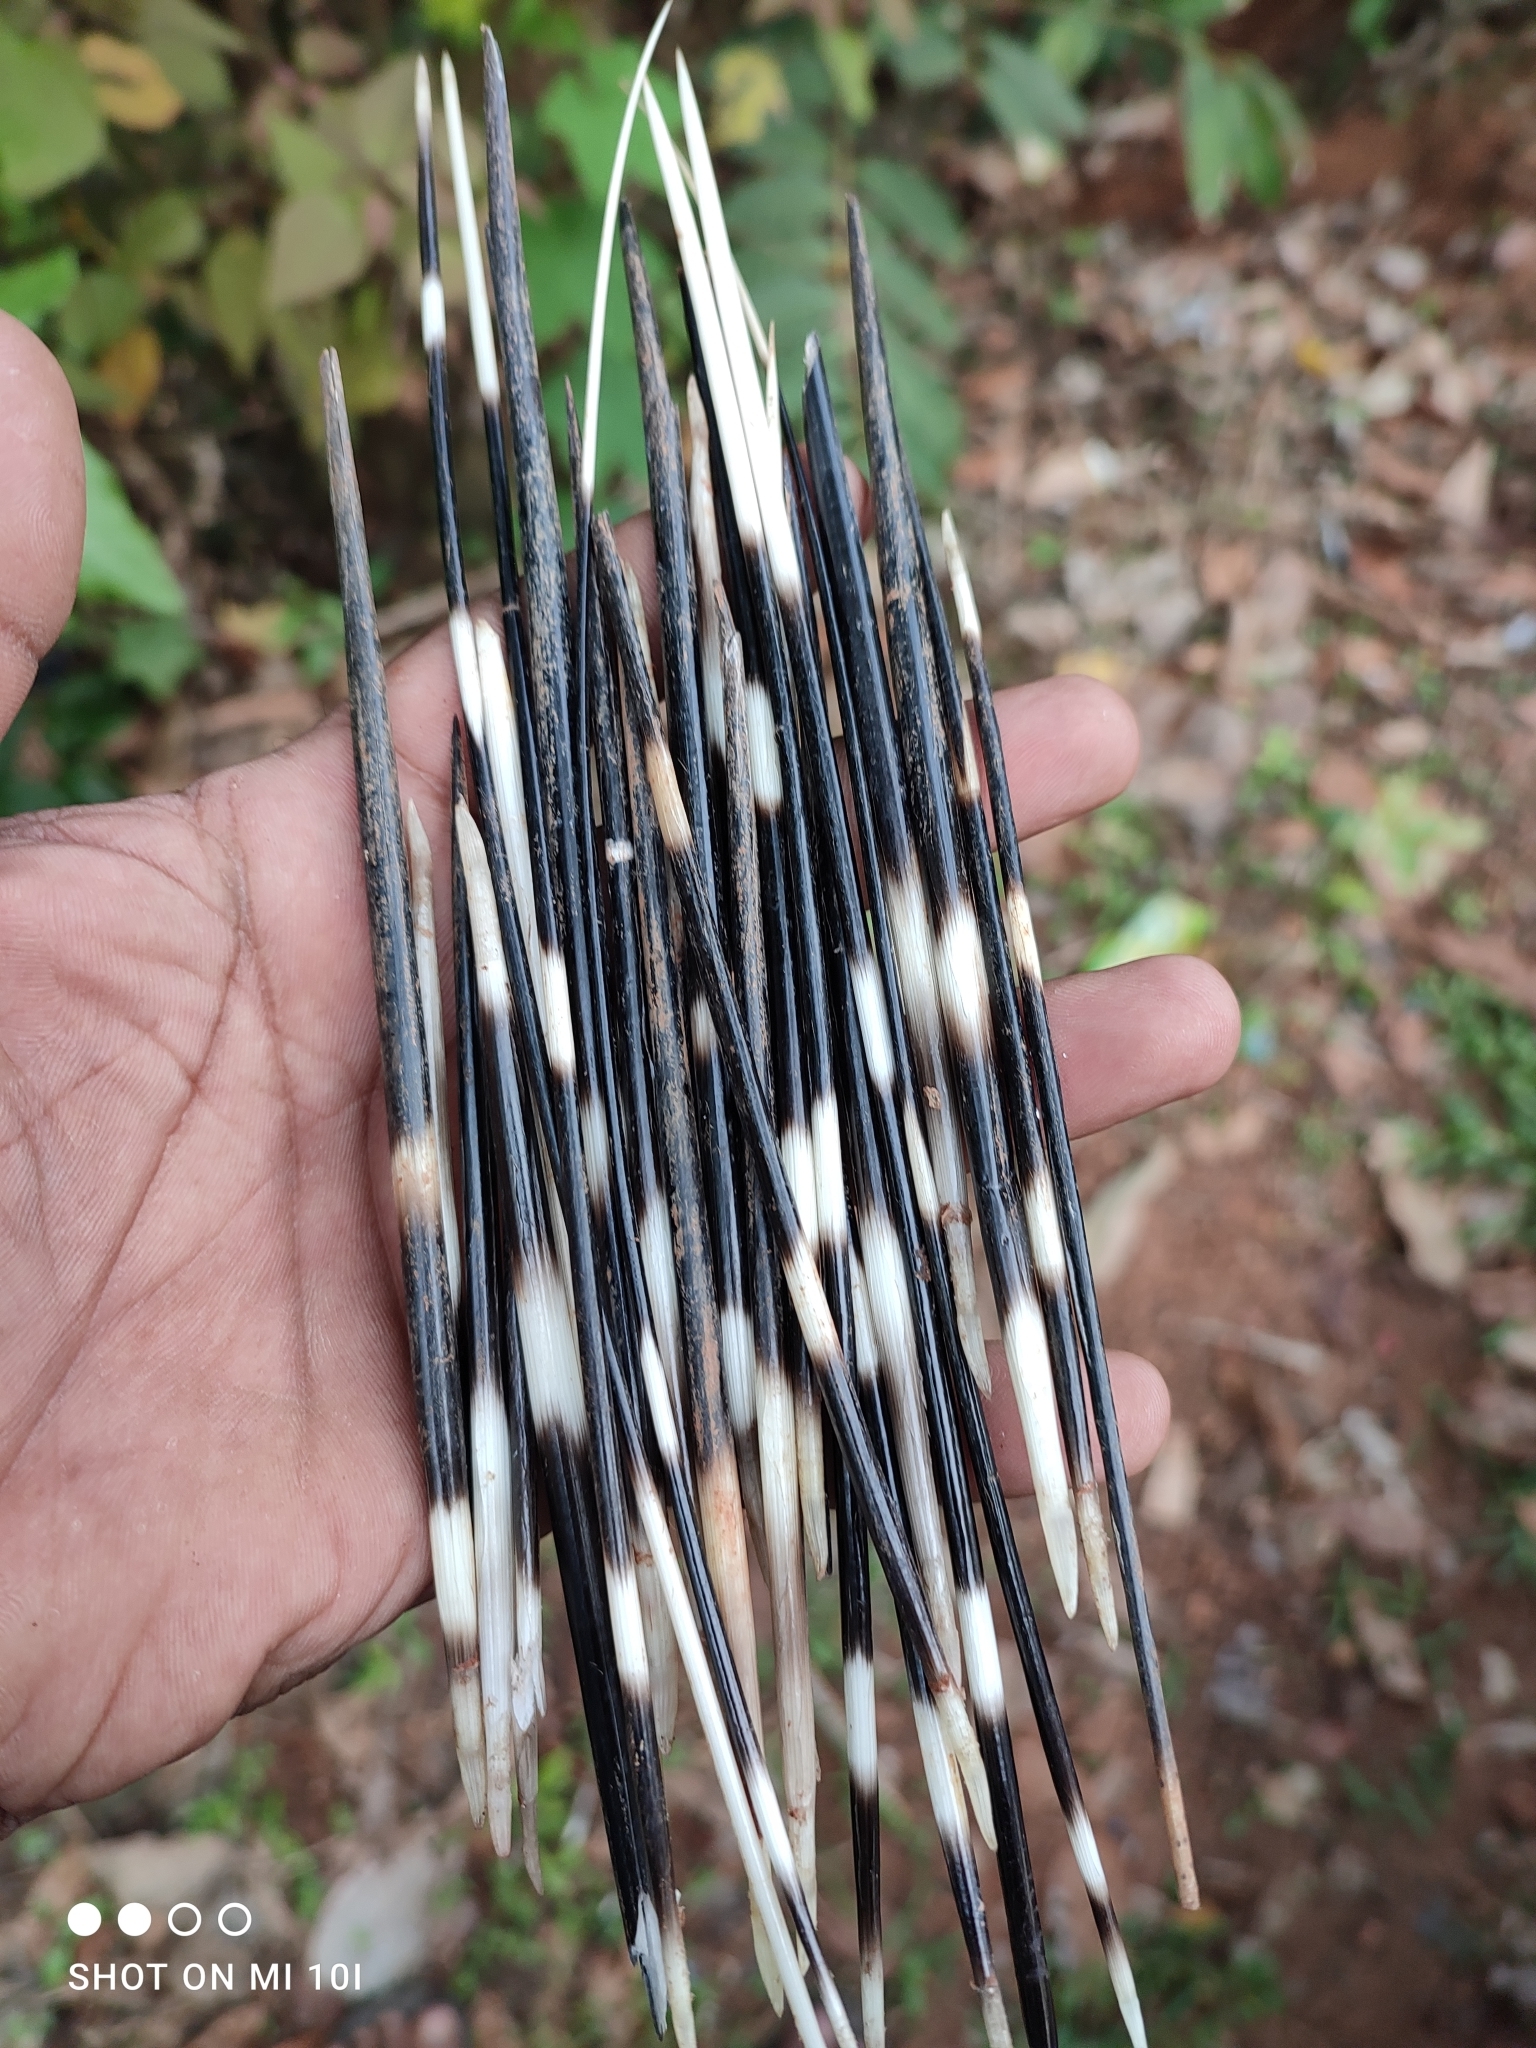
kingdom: Animalia
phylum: Chordata
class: Mammalia
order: Rodentia
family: Hystricidae
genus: Hystrix
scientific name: Hystrix indica
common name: Indian crested porcupine
